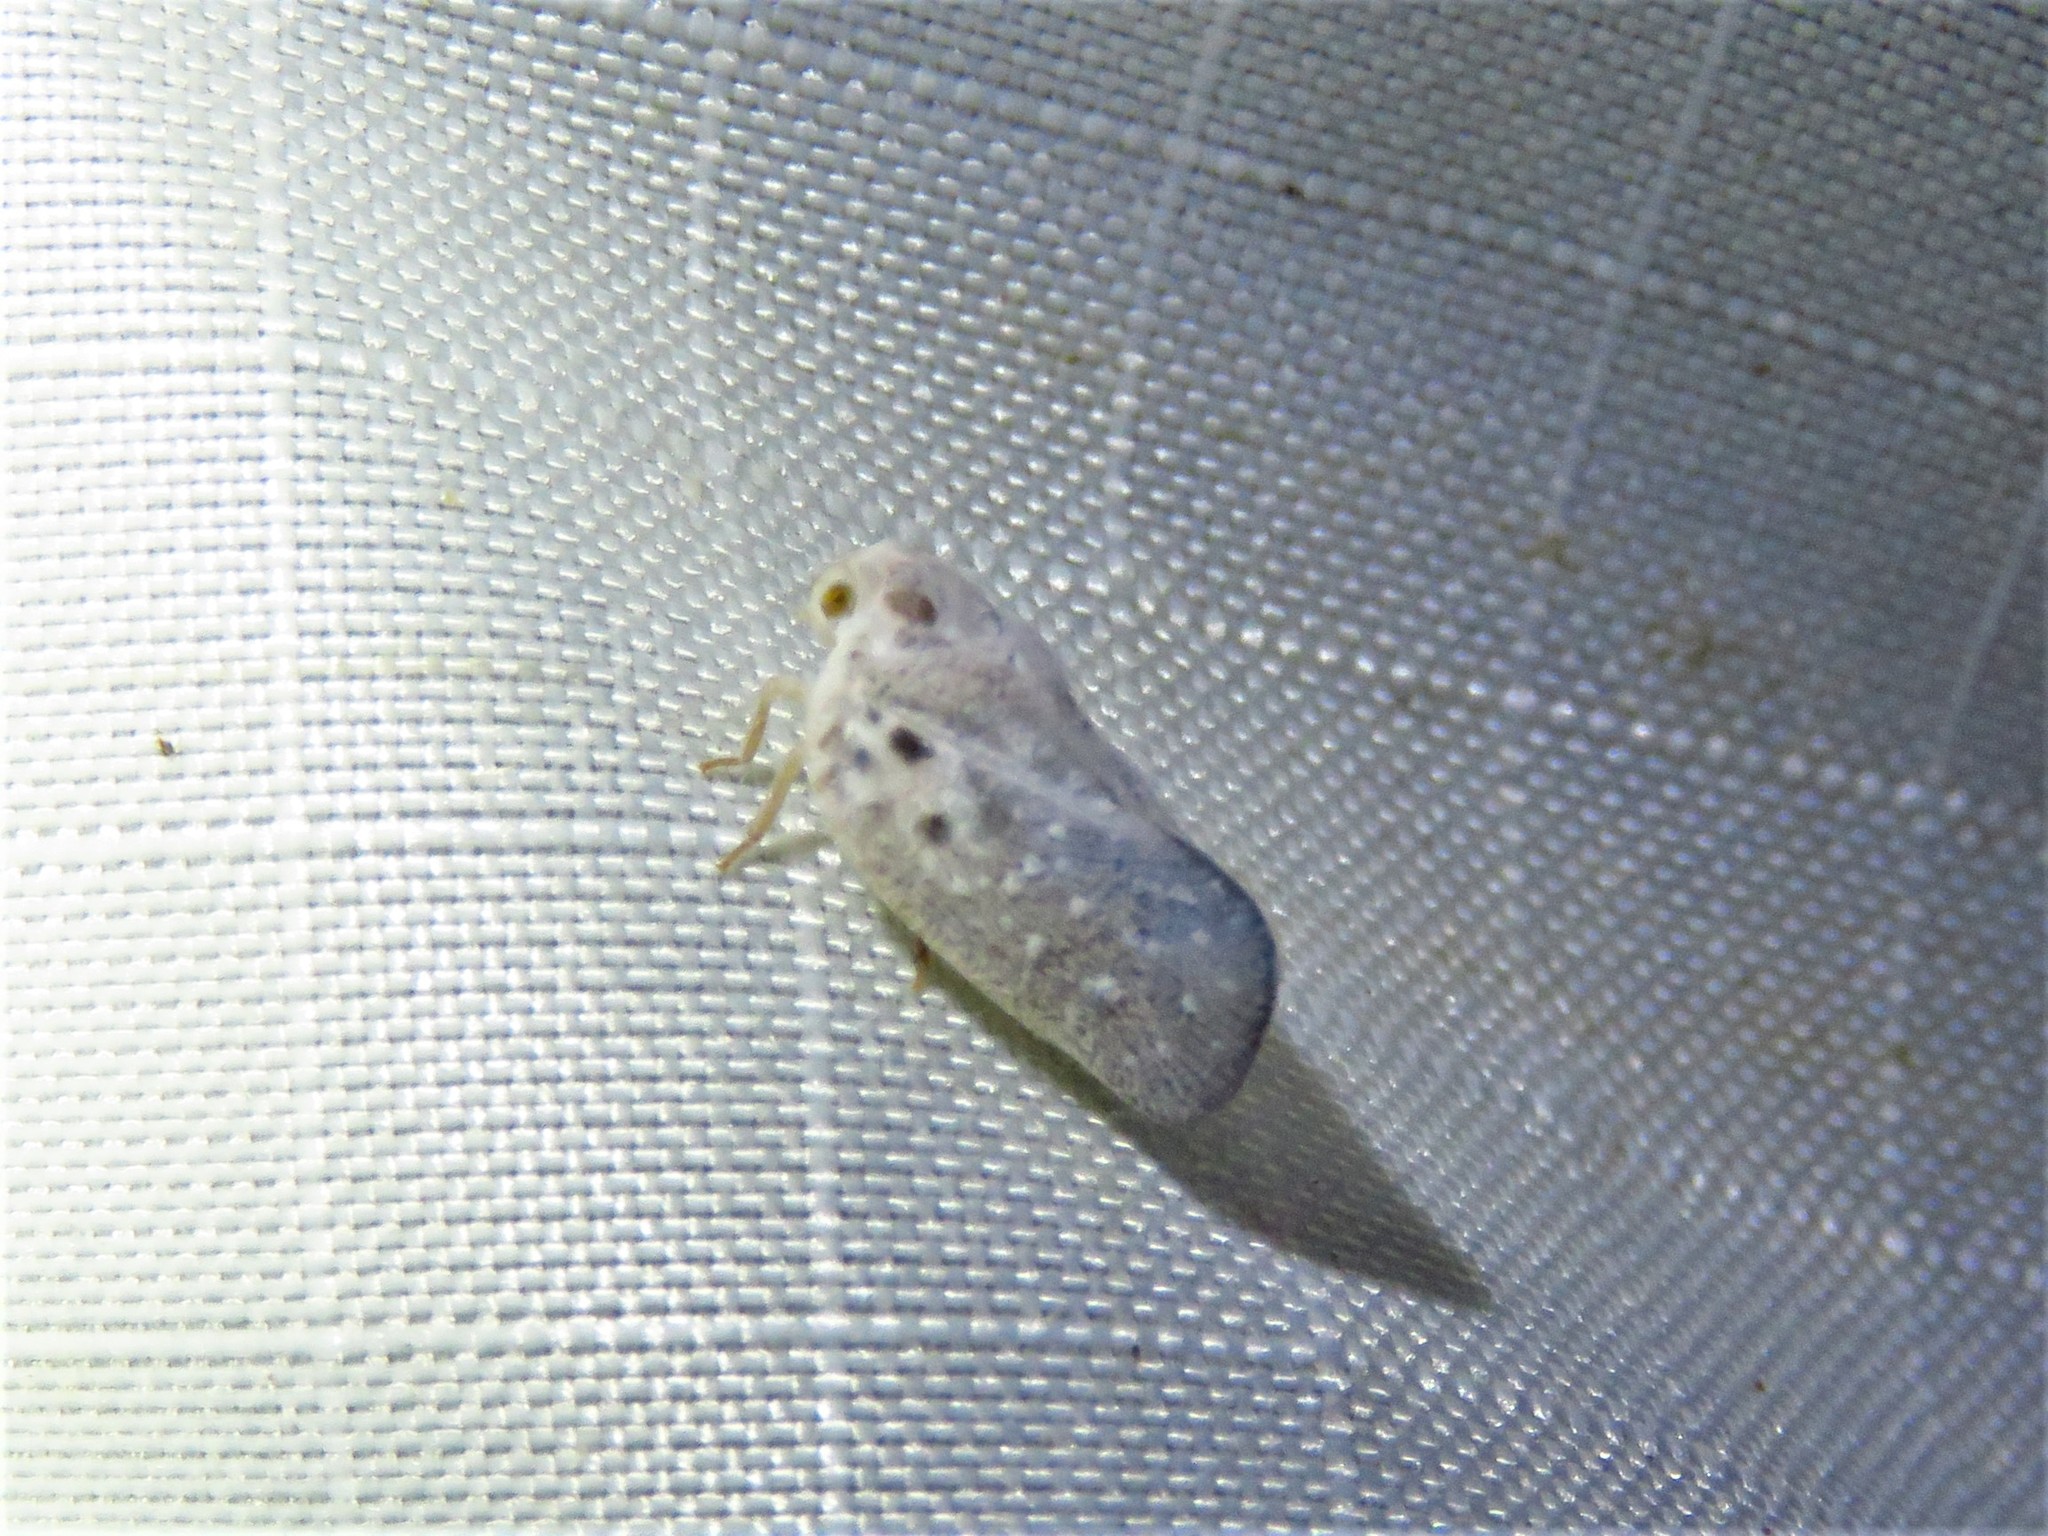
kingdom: Animalia
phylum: Arthropoda
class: Insecta
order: Hemiptera
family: Flatidae
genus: Metcalfa
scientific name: Metcalfa pruinosa
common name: Citrus flatid planthopper
